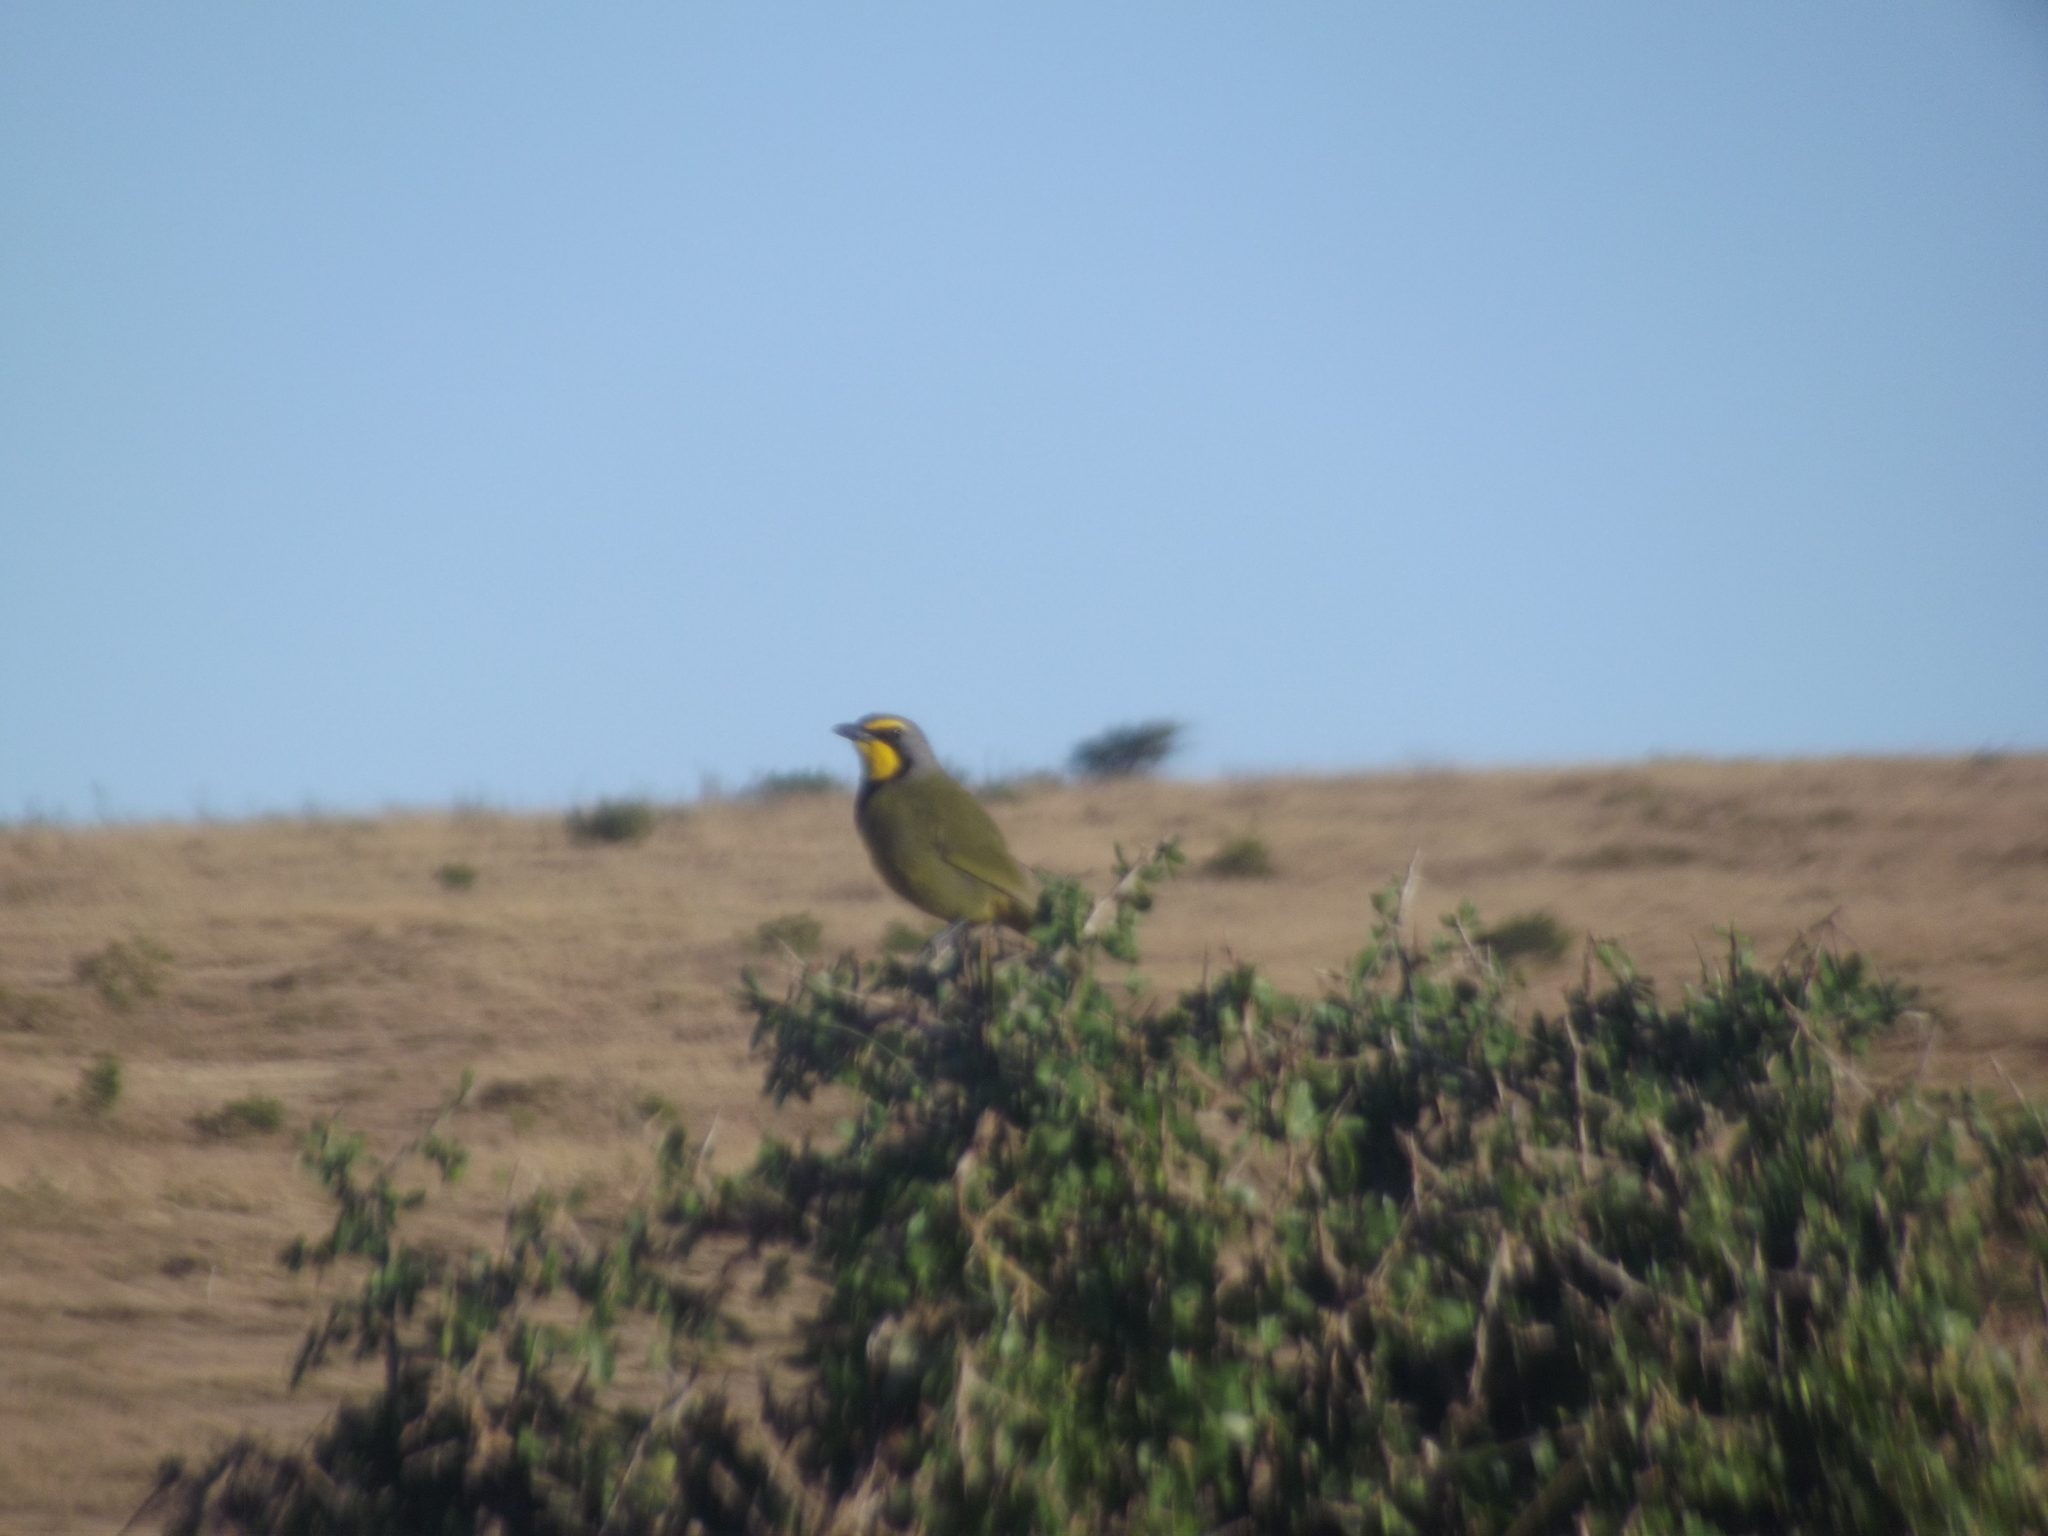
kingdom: Animalia
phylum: Chordata
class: Aves
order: Passeriformes
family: Malaconotidae
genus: Telophorus
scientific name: Telophorus zeylonus
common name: Bokmakierie
